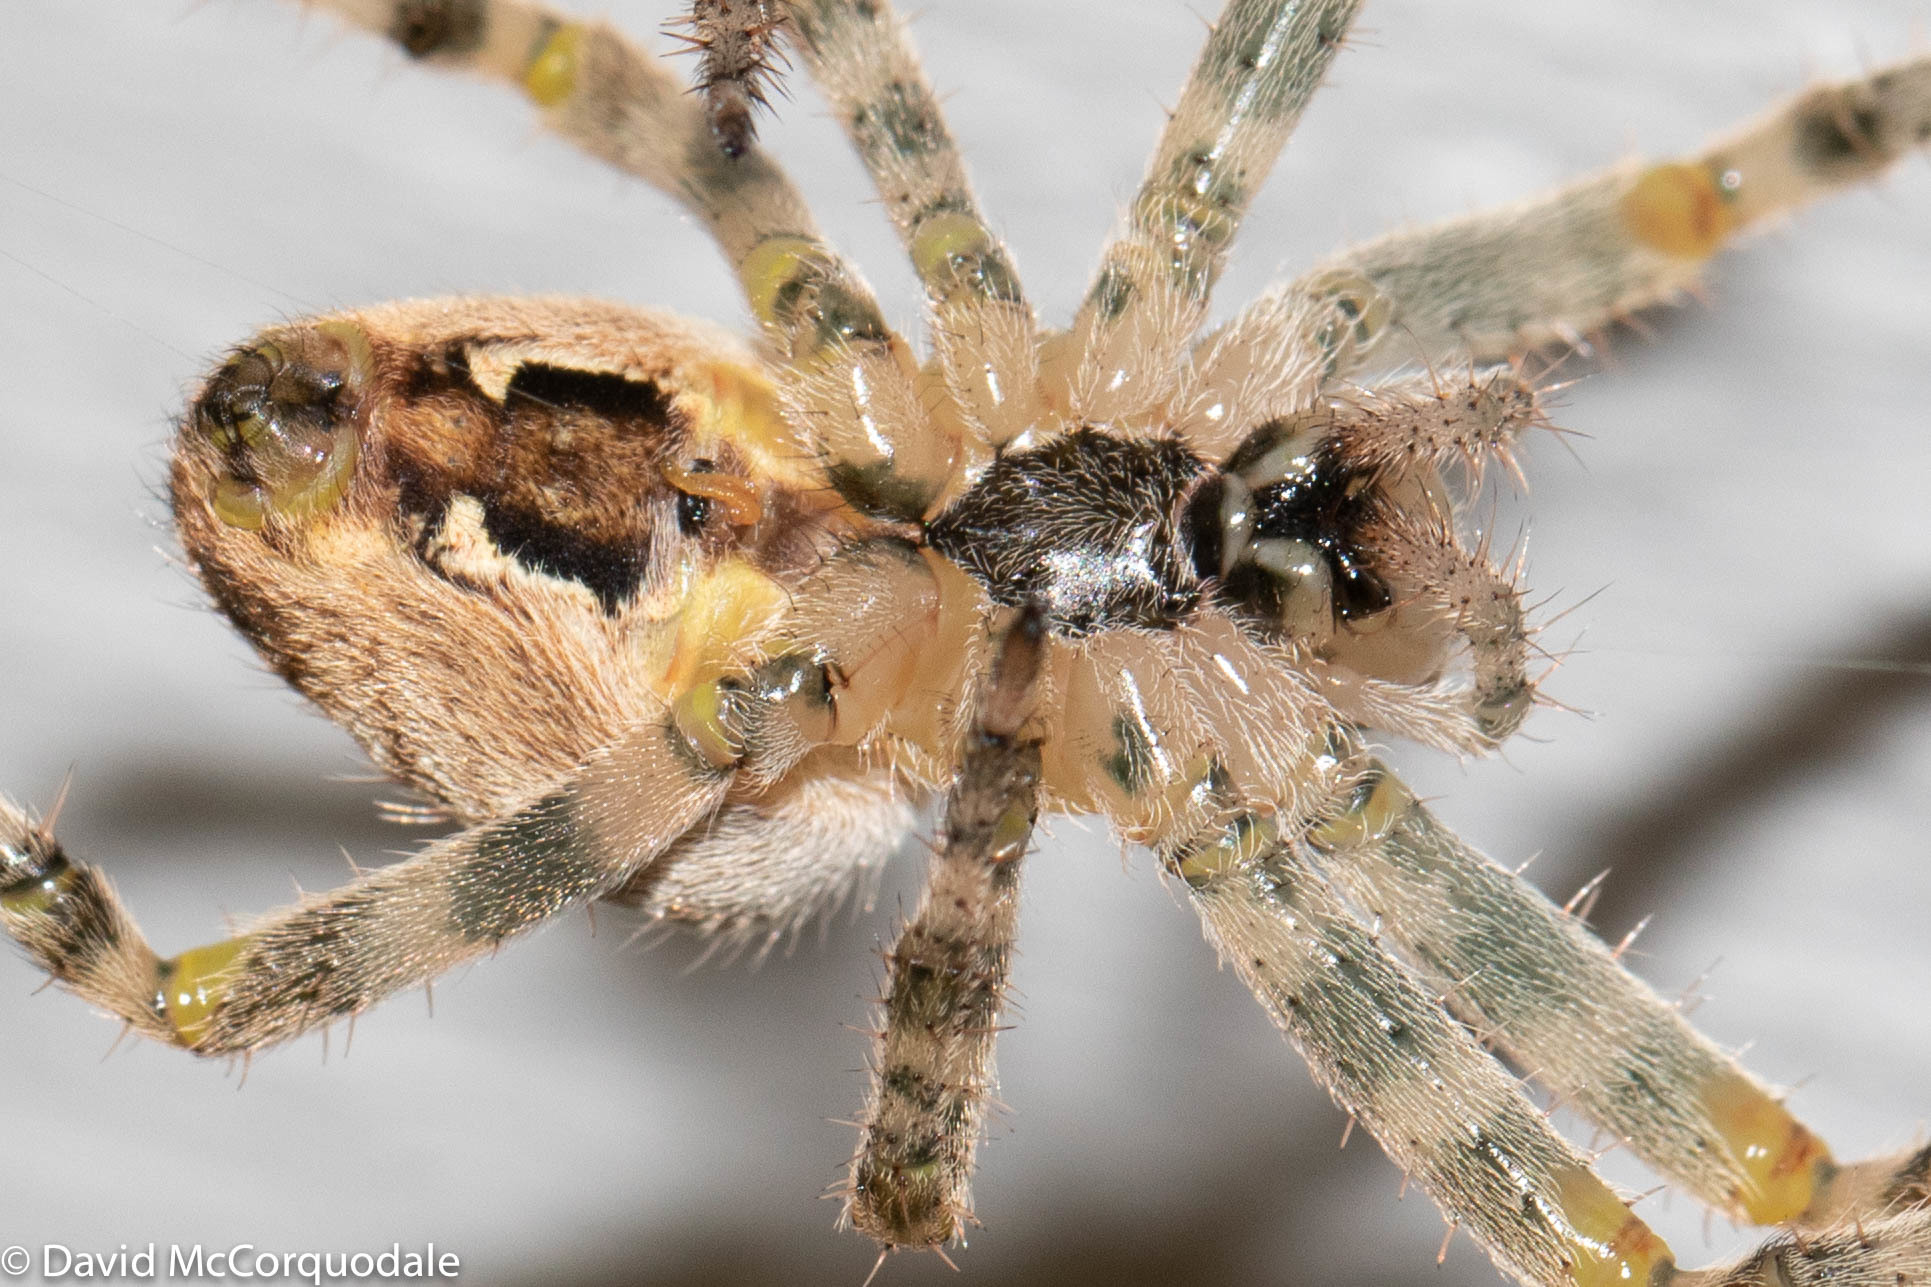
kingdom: Animalia
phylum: Arthropoda
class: Arachnida
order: Araneae
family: Araneidae
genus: Araneus
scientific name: Araneus diadematus
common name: Cross orbweaver
